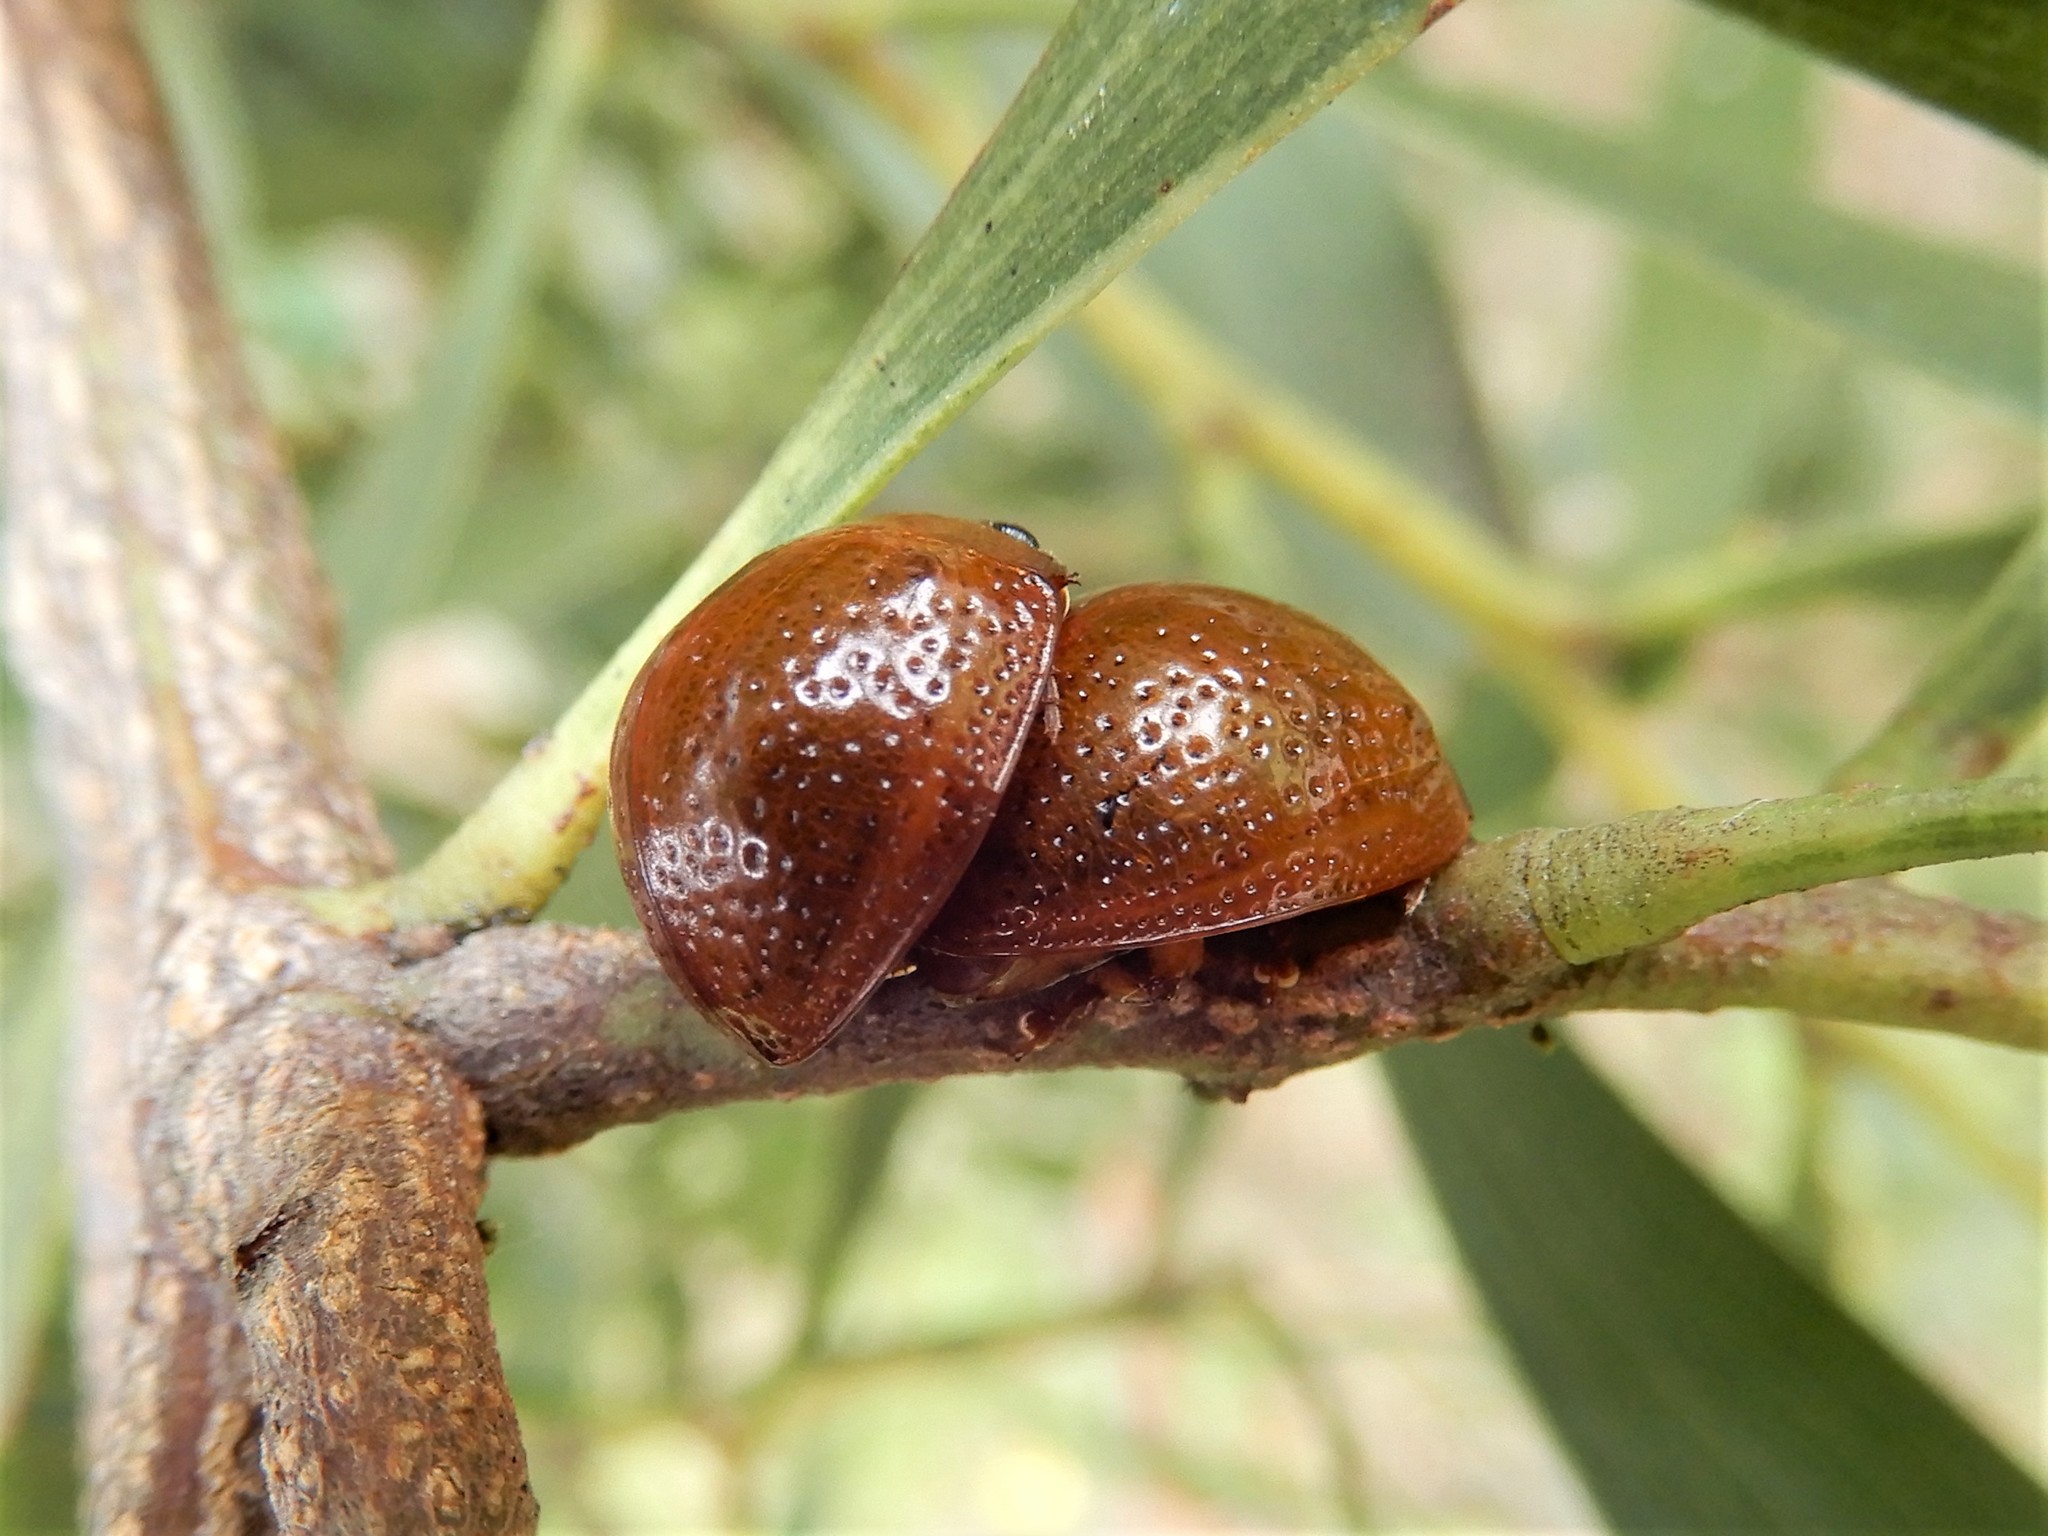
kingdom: Animalia
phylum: Arthropoda
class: Insecta
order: Coleoptera
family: Chrysomelidae
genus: Dicranosterna
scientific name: Dicranosterna
